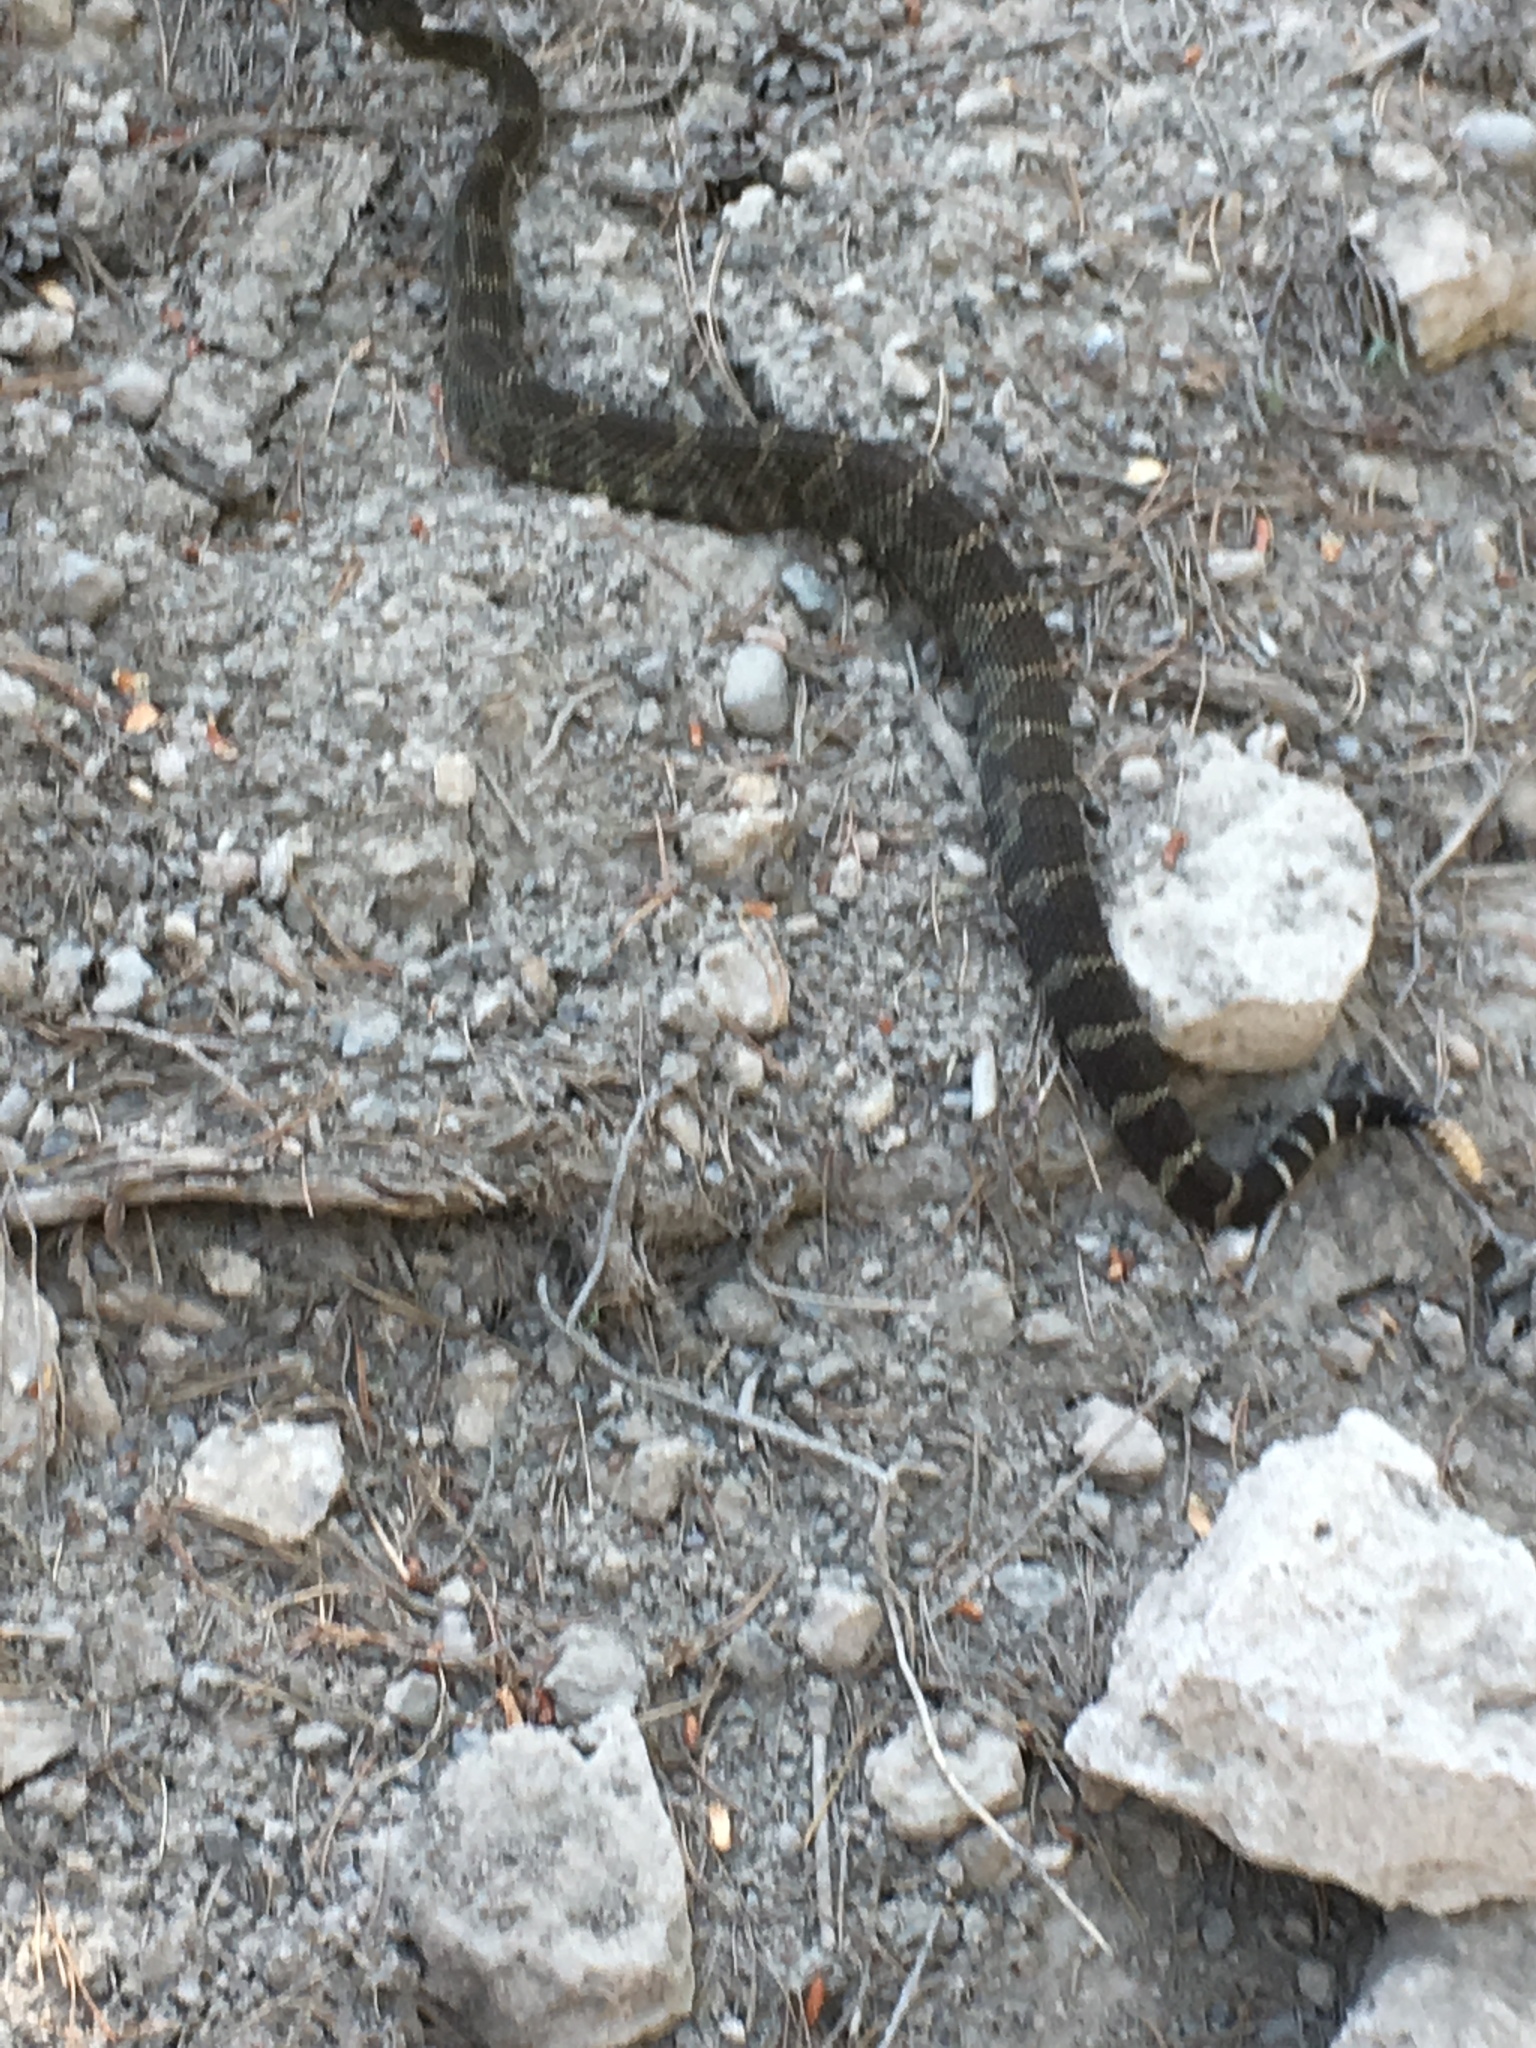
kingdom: Animalia
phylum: Chordata
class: Squamata
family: Viperidae
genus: Crotalus
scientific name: Crotalus oreganus
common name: Abyssus
